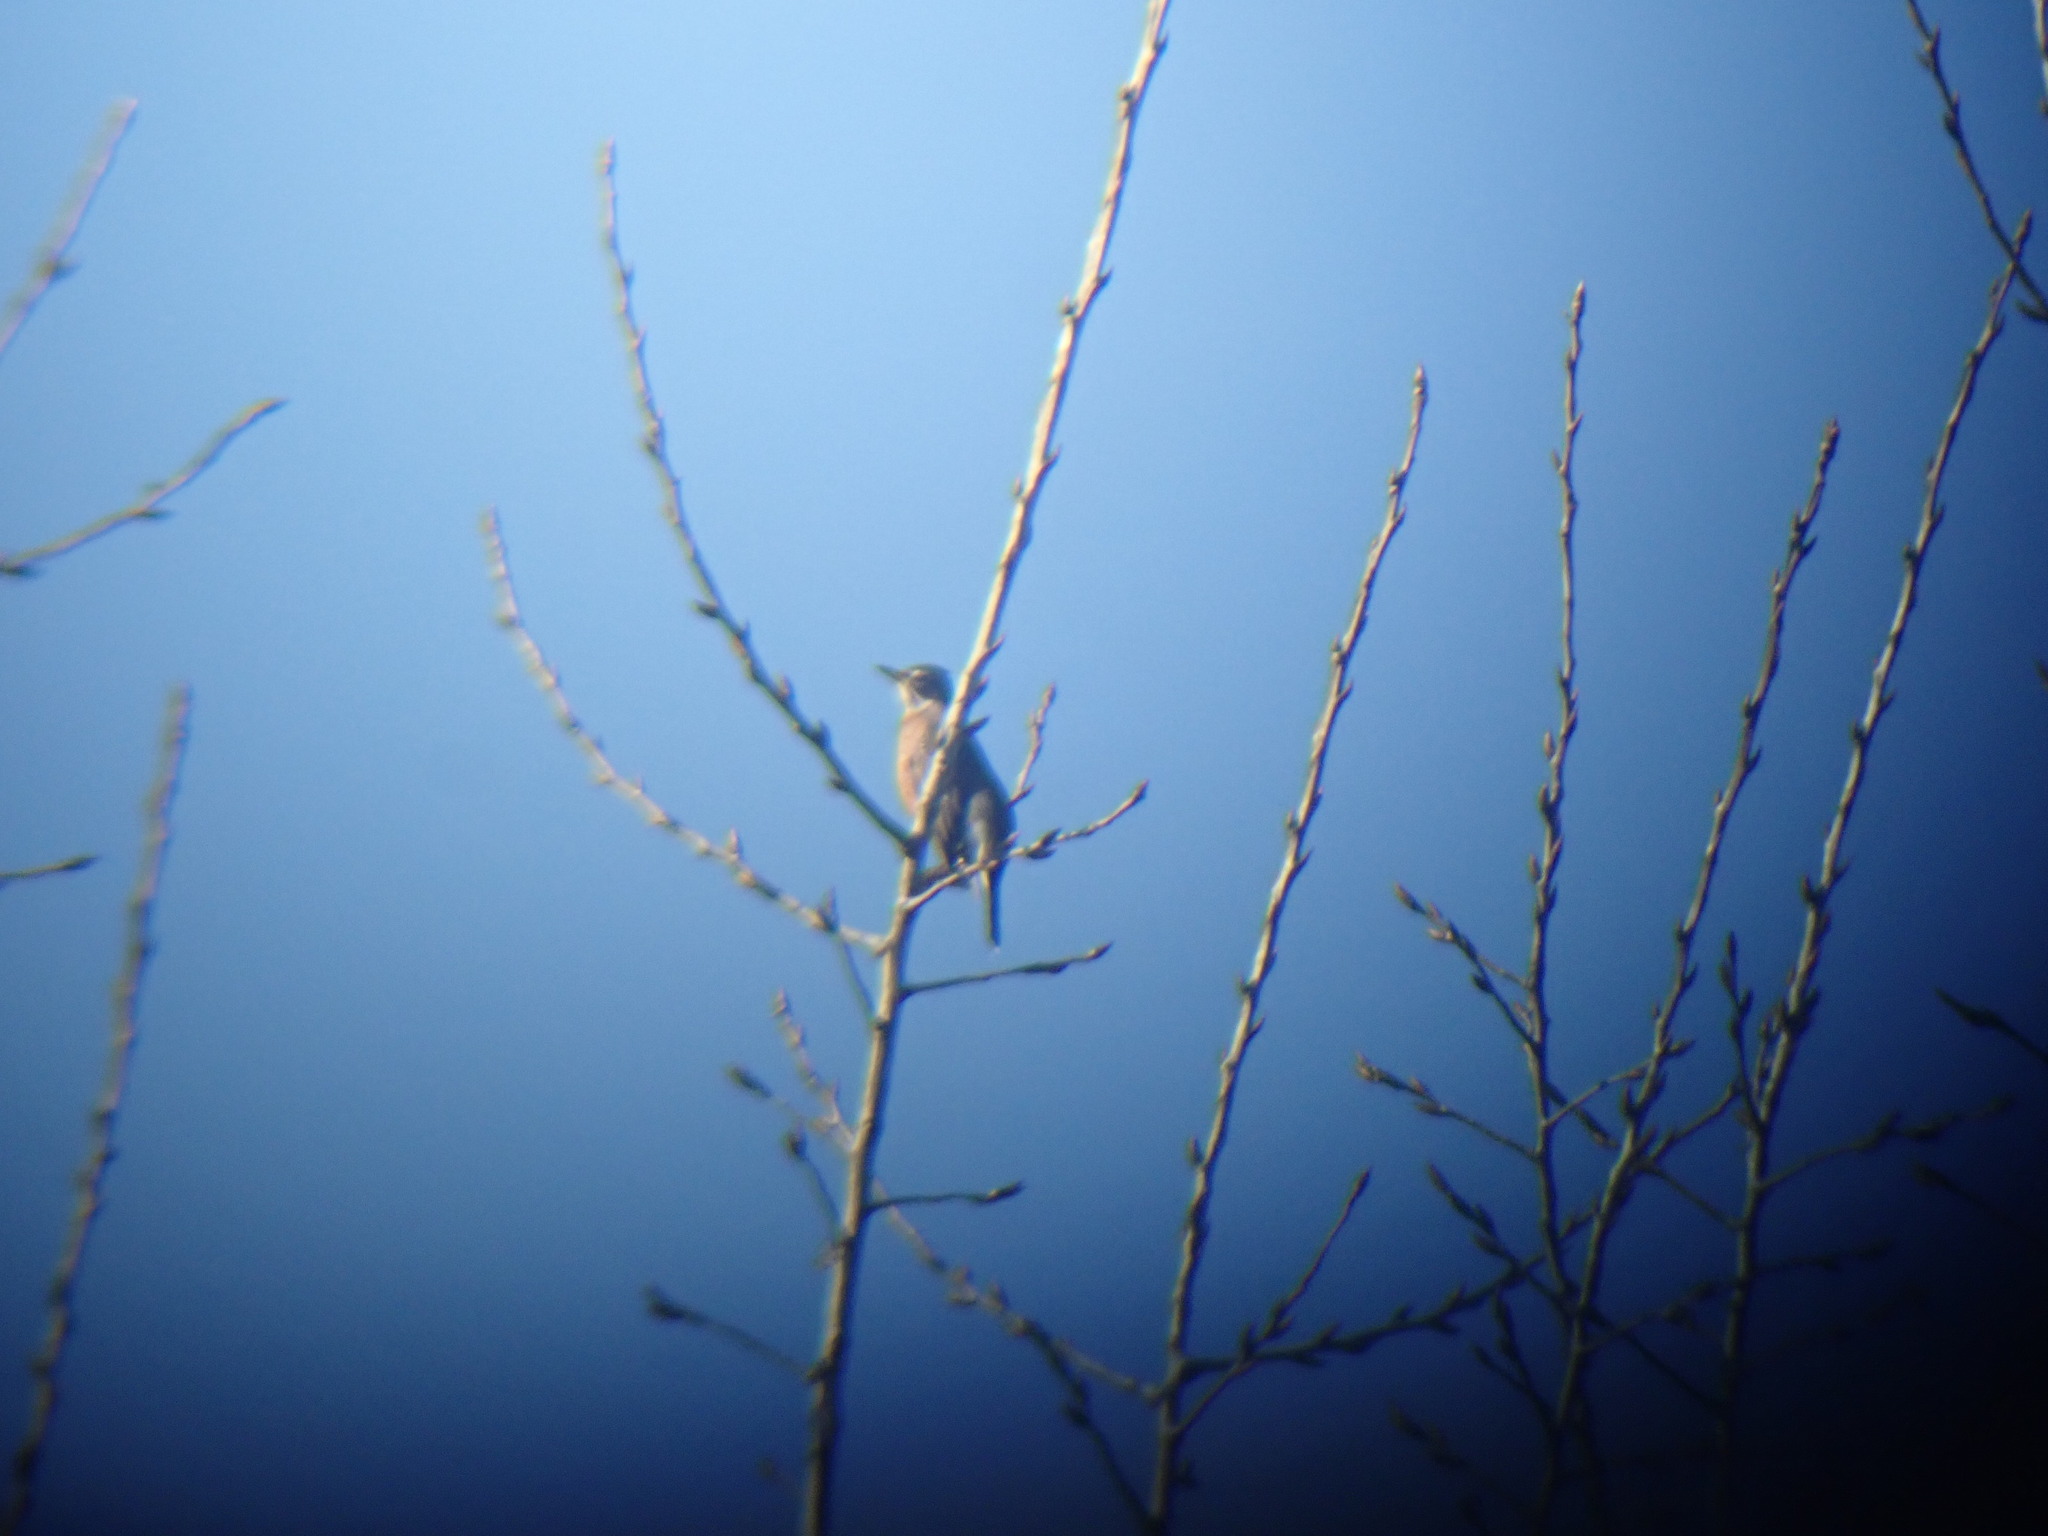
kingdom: Animalia
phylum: Chordata
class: Aves
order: Passeriformes
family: Turdidae
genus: Turdus
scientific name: Turdus migratorius
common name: American robin
